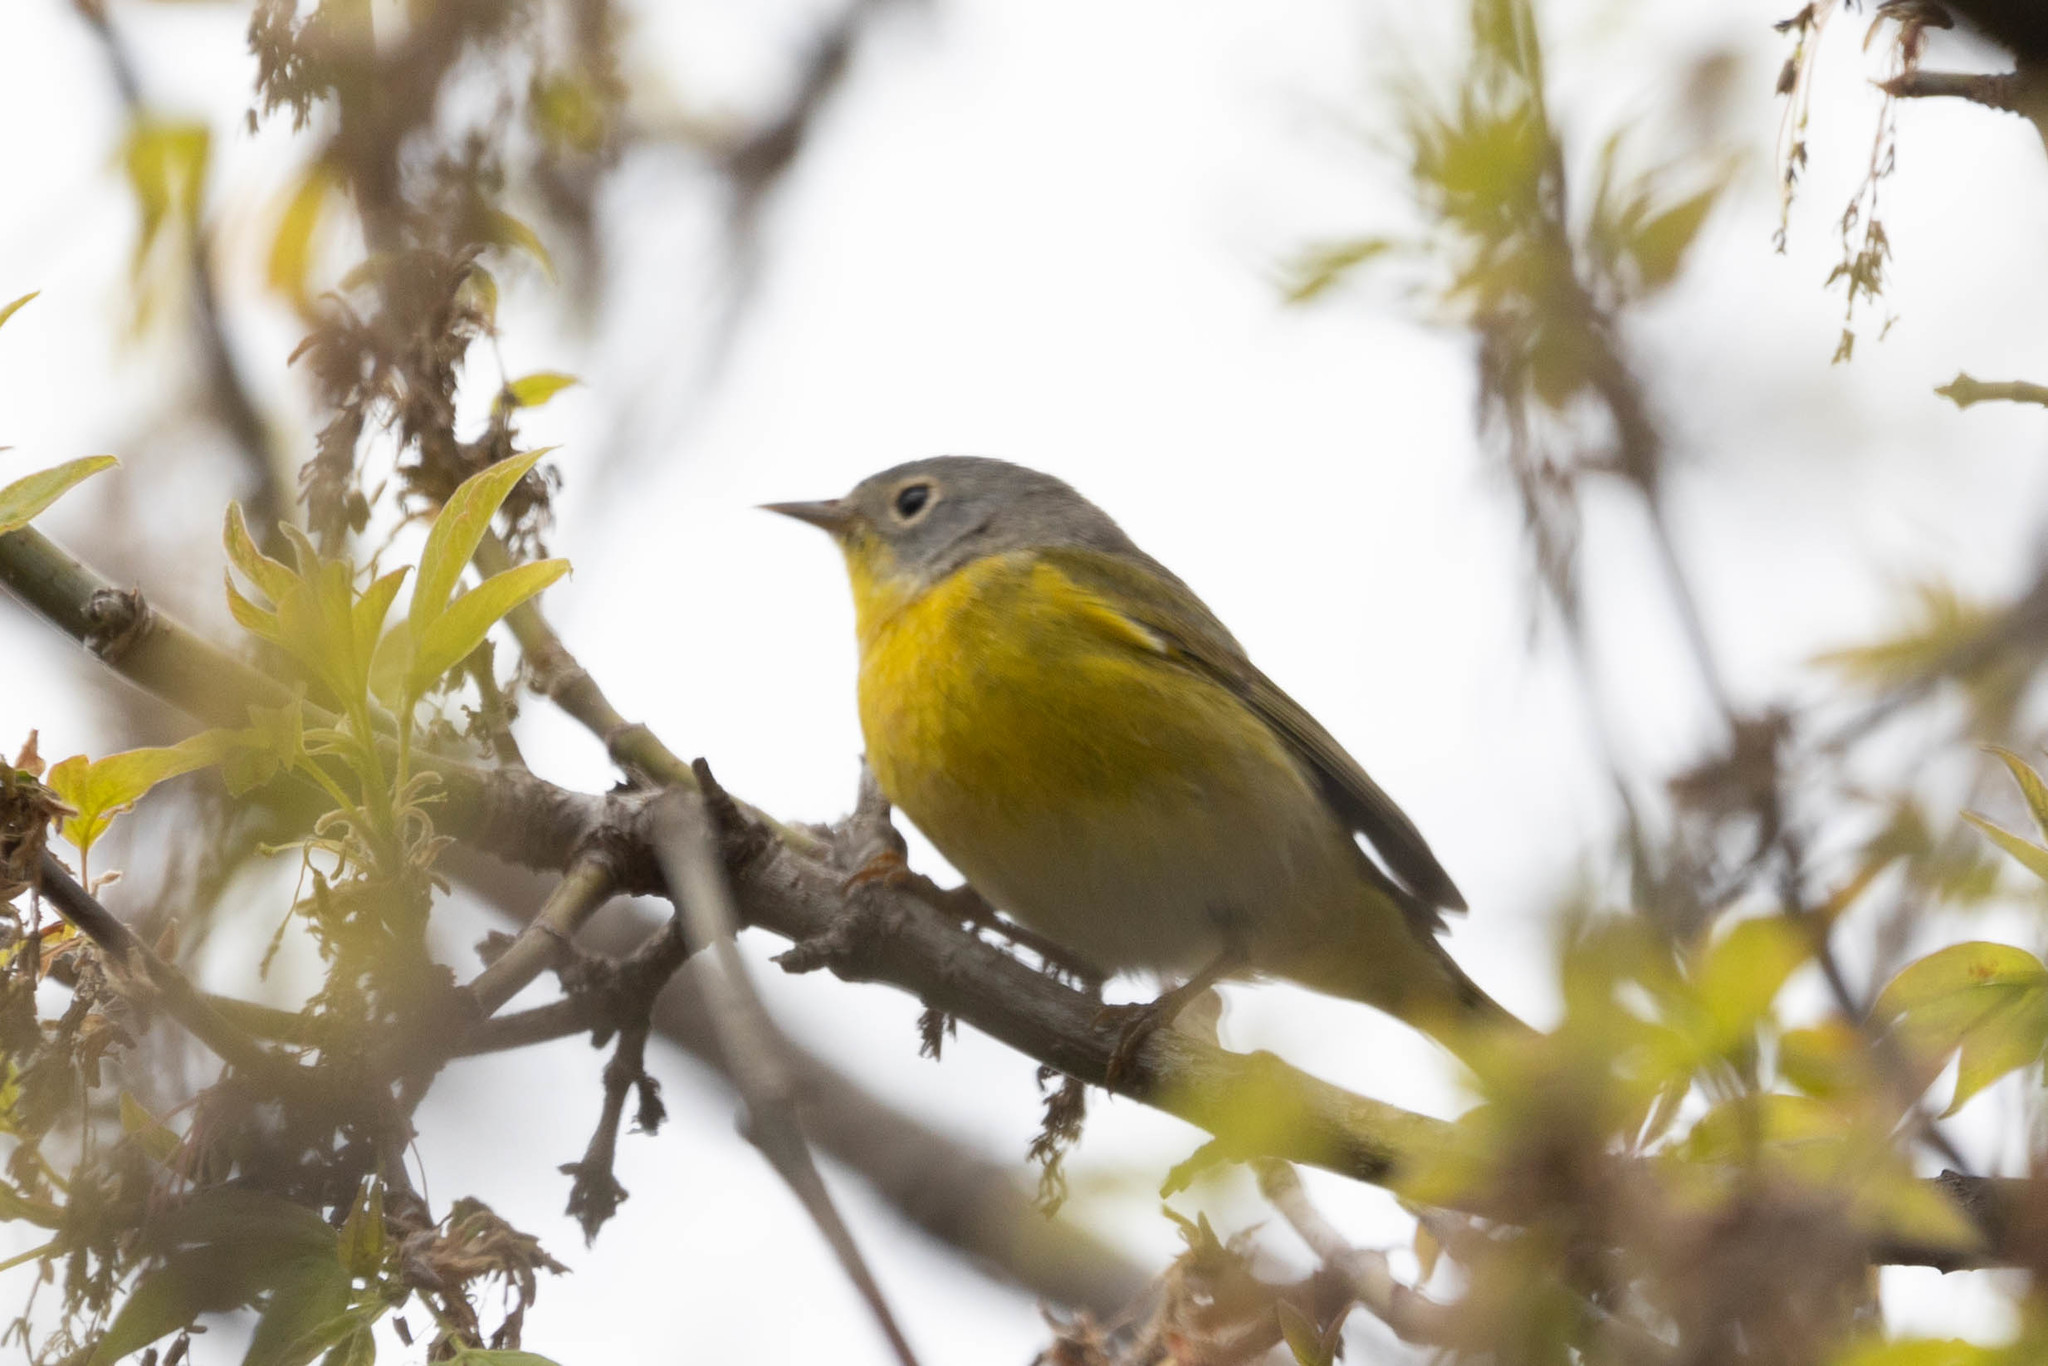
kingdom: Animalia
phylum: Chordata
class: Aves
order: Passeriformes
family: Parulidae
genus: Leiothlypis
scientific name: Leiothlypis ruficapilla
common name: Nashville warbler
